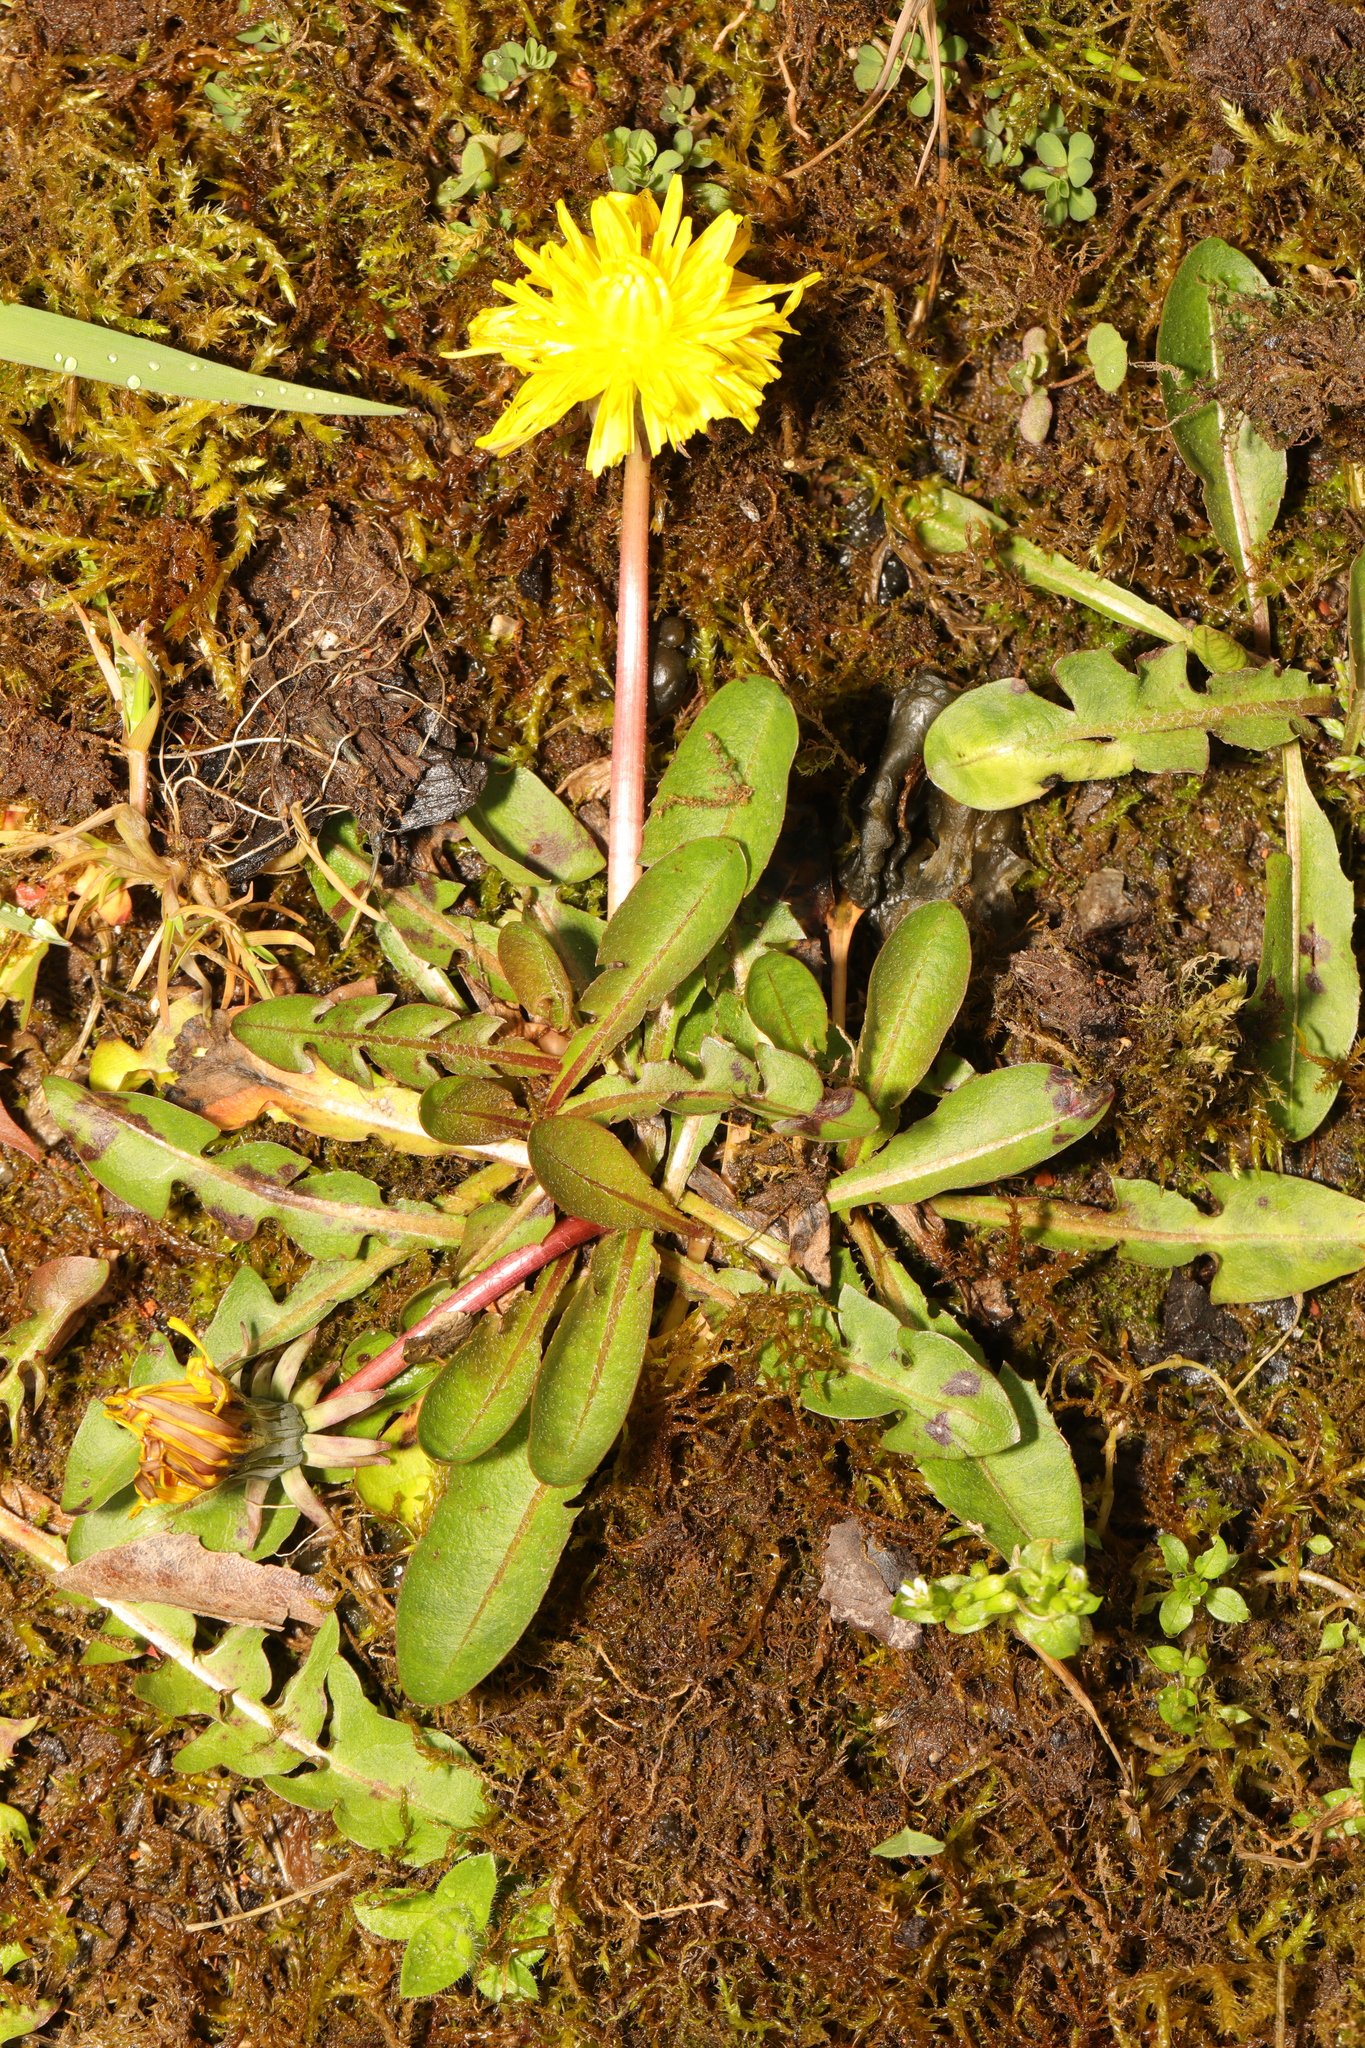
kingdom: Plantae
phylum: Tracheophyta
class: Magnoliopsida
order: Asterales
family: Asteraceae
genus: Taraxacum
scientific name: Taraxacum officinale
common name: Common dandelion
